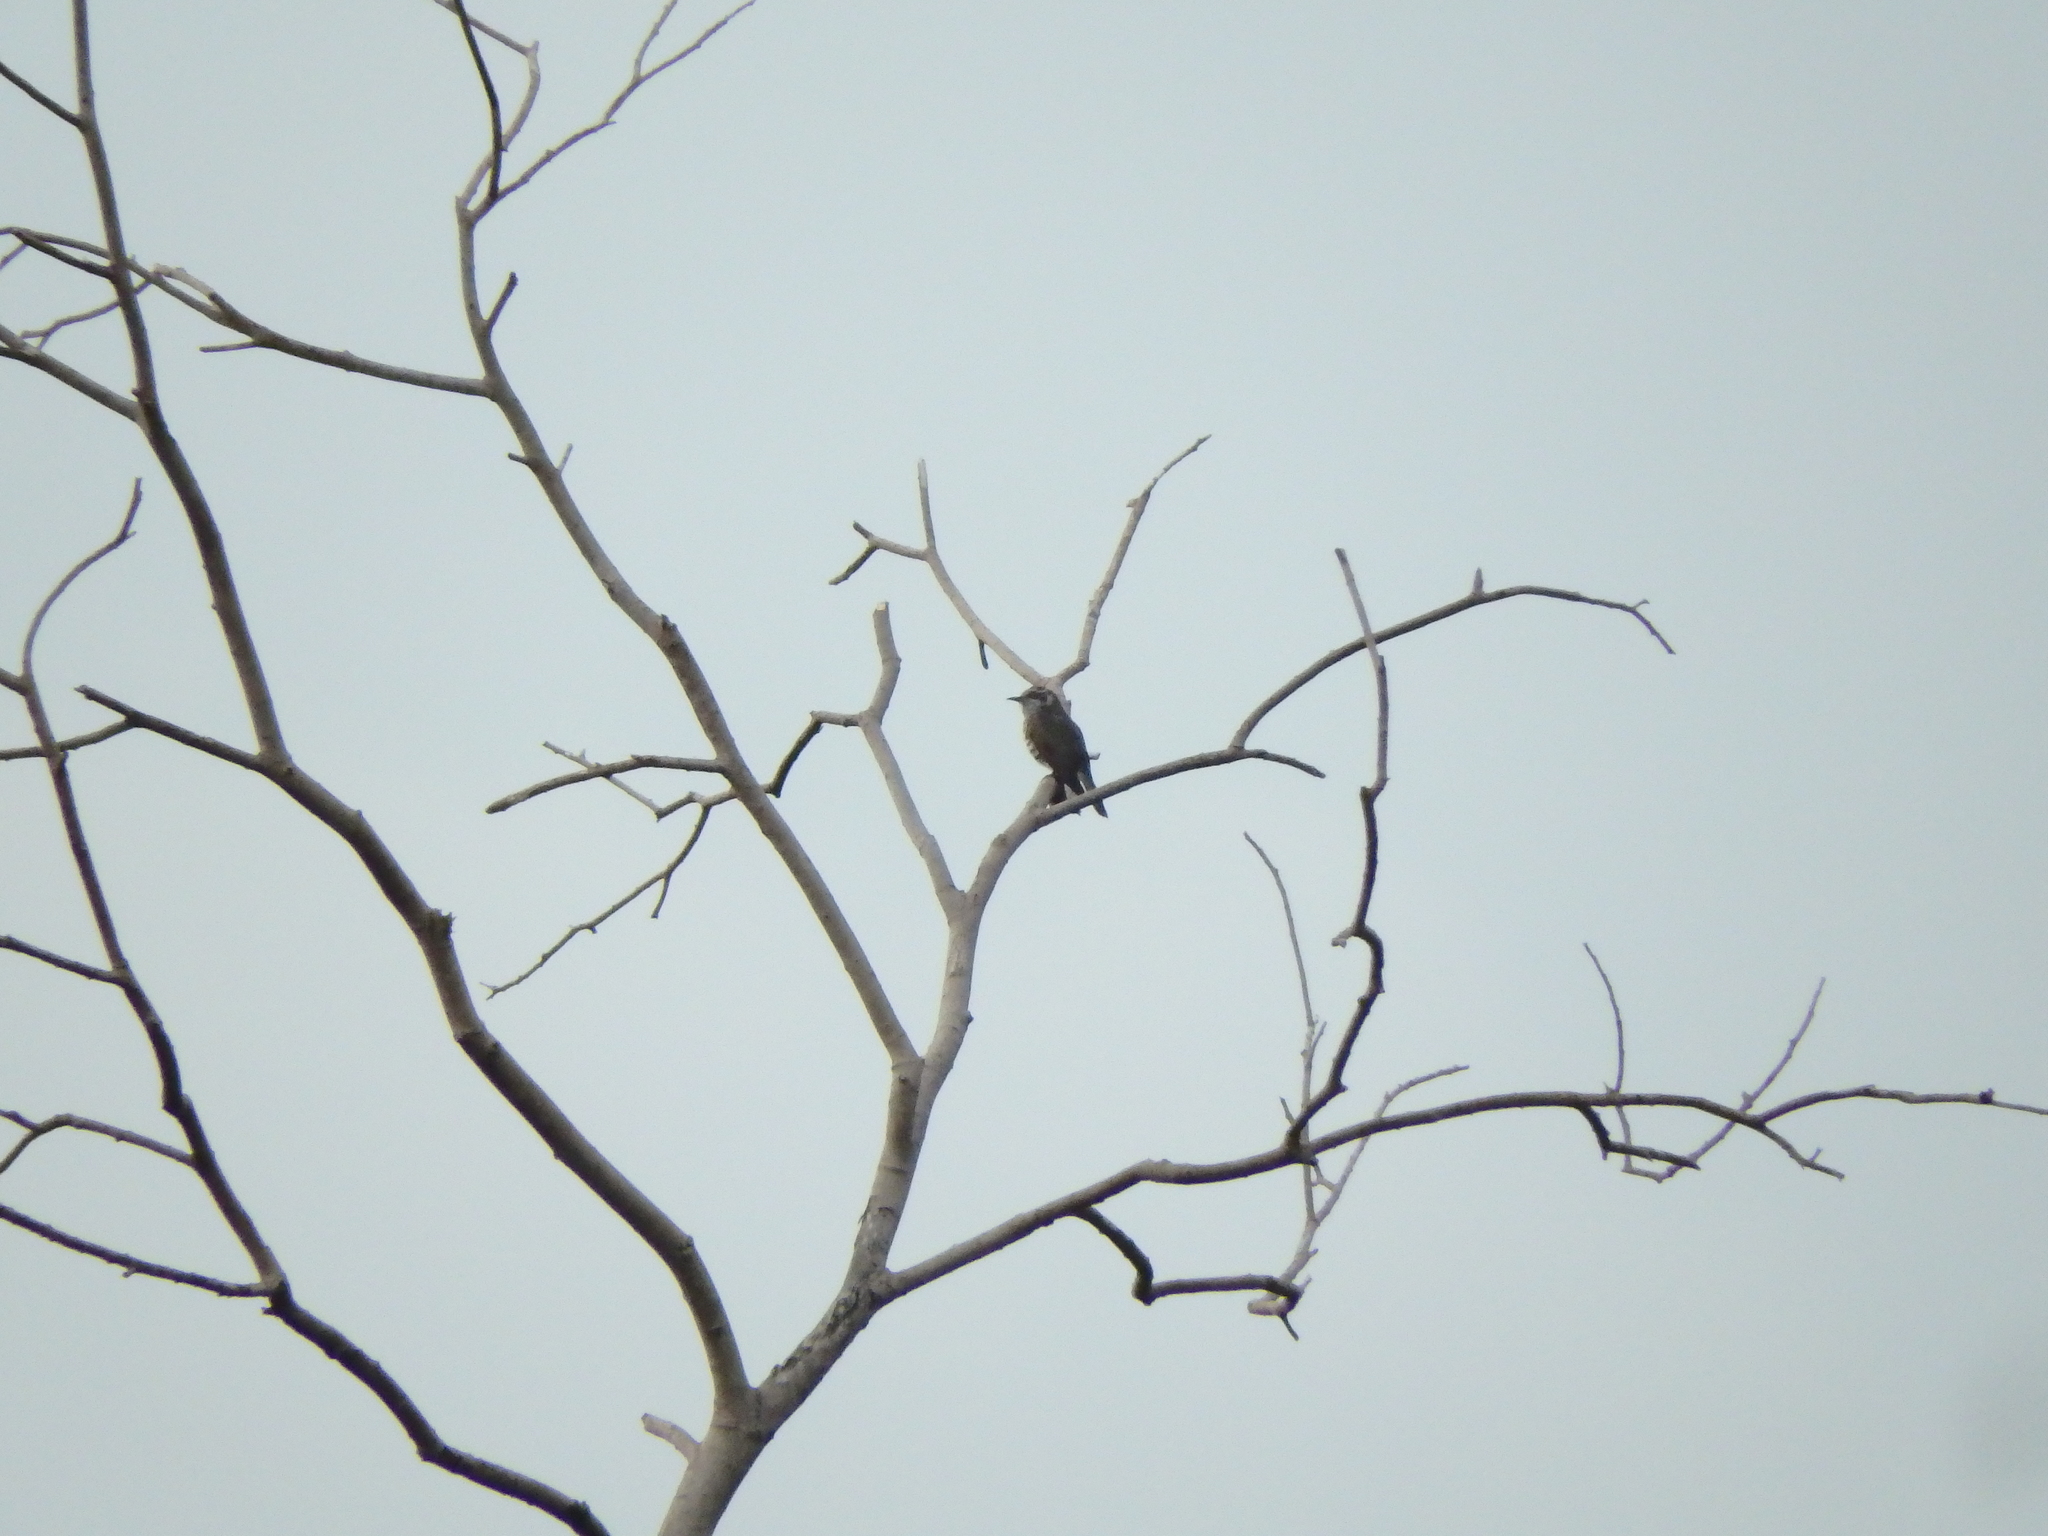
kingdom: Animalia
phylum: Chordata
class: Aves
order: Cuculiformes
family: Cuculidae
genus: Chrysococcyx
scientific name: Chrysococcyx minutillus
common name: Little bronze cuckoo
